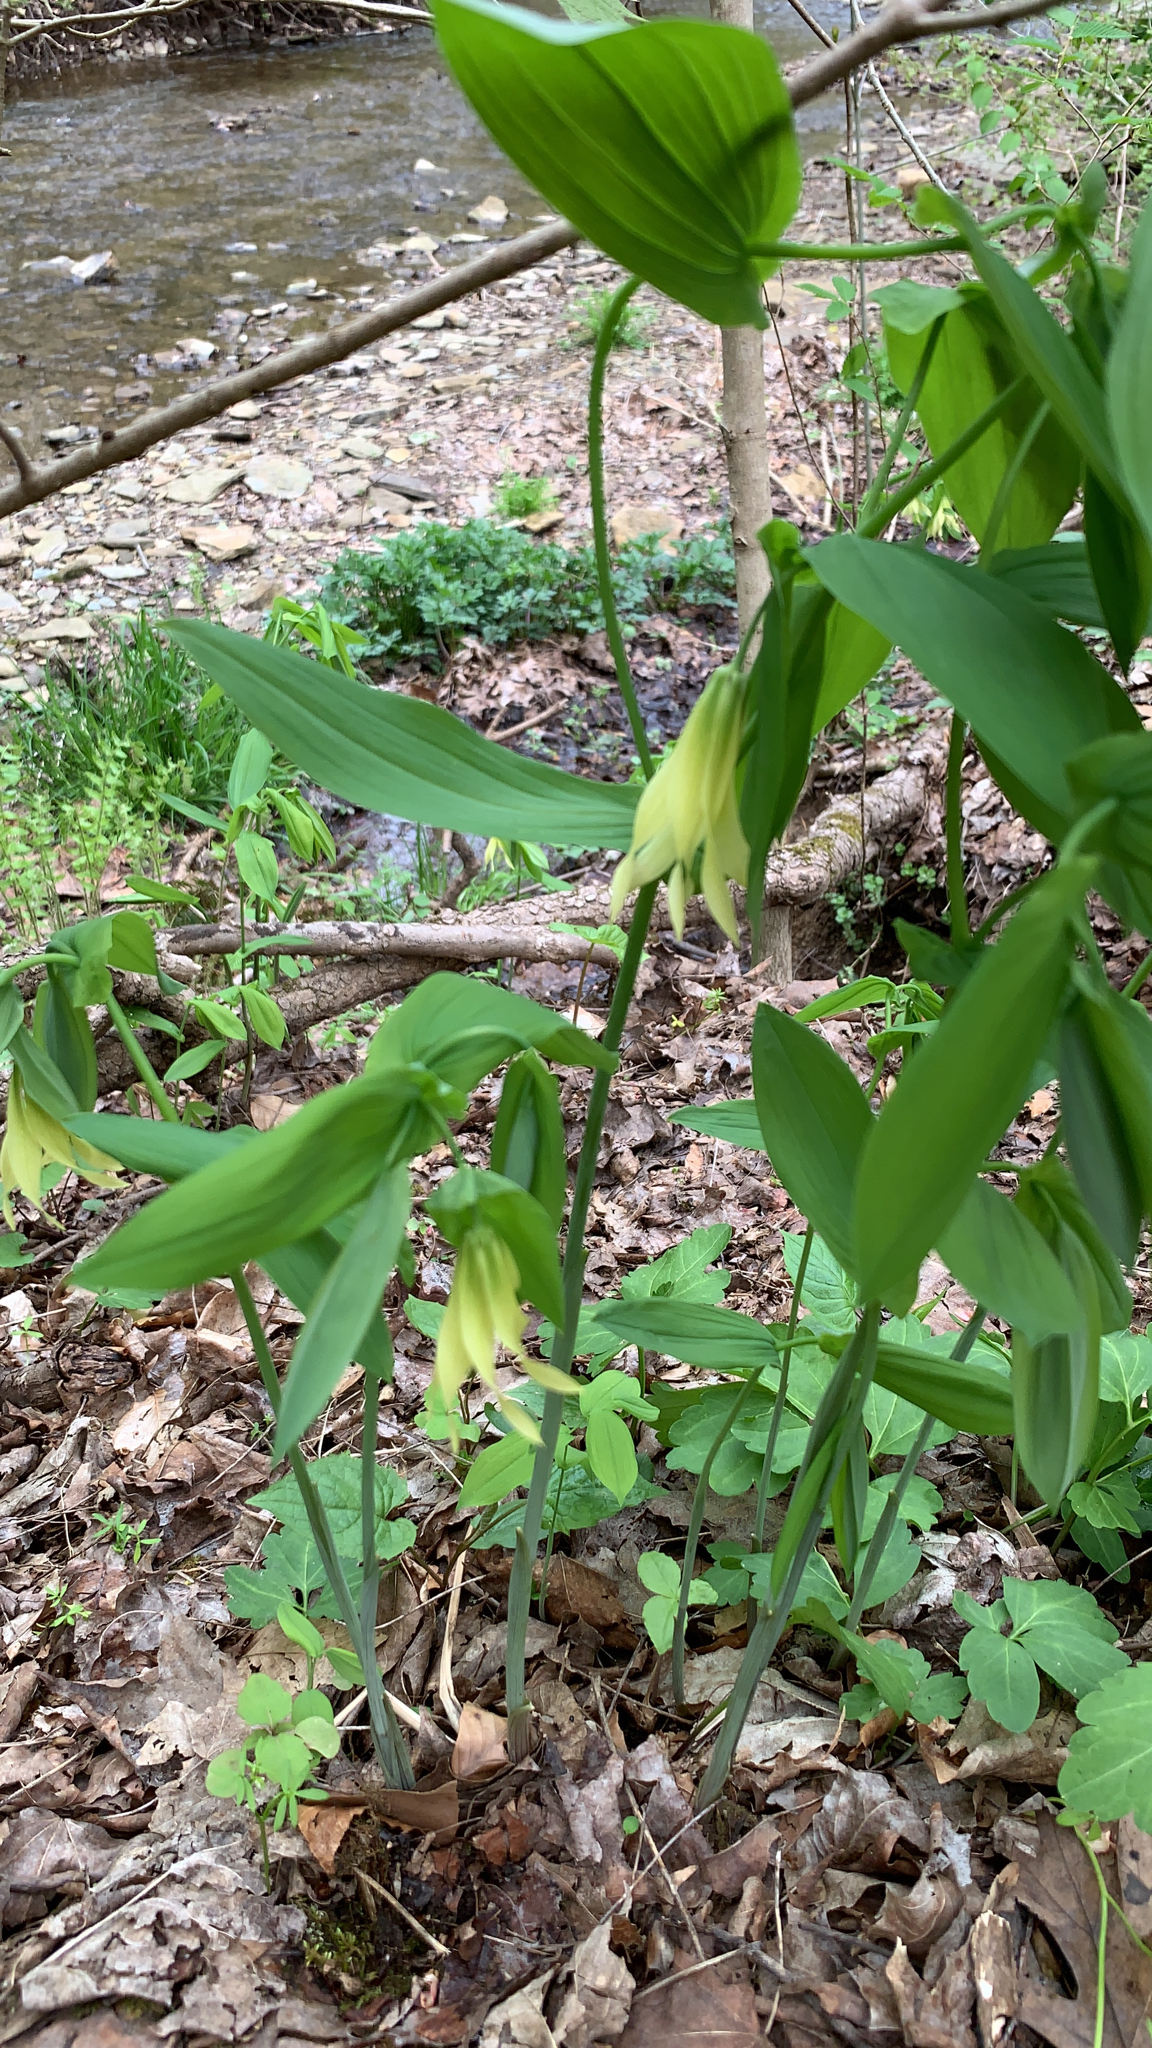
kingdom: Plantae
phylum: Tracheophyta
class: Liliopsida
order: Liliales
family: Colchicaceae
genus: Uvularia
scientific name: Uvularia grandiflora
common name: Bellwort
